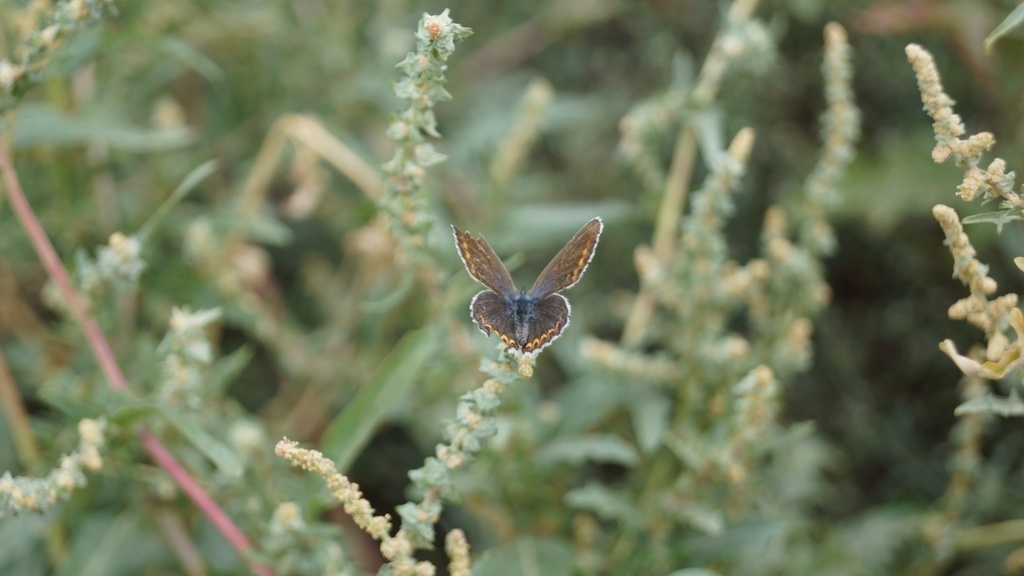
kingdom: Plantae
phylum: Tracheophyta
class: Magnoliopsida
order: Caryophyllales
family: Amaranthaceae
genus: Atriplex
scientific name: Atriplex tatarica
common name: Tatarian orache
